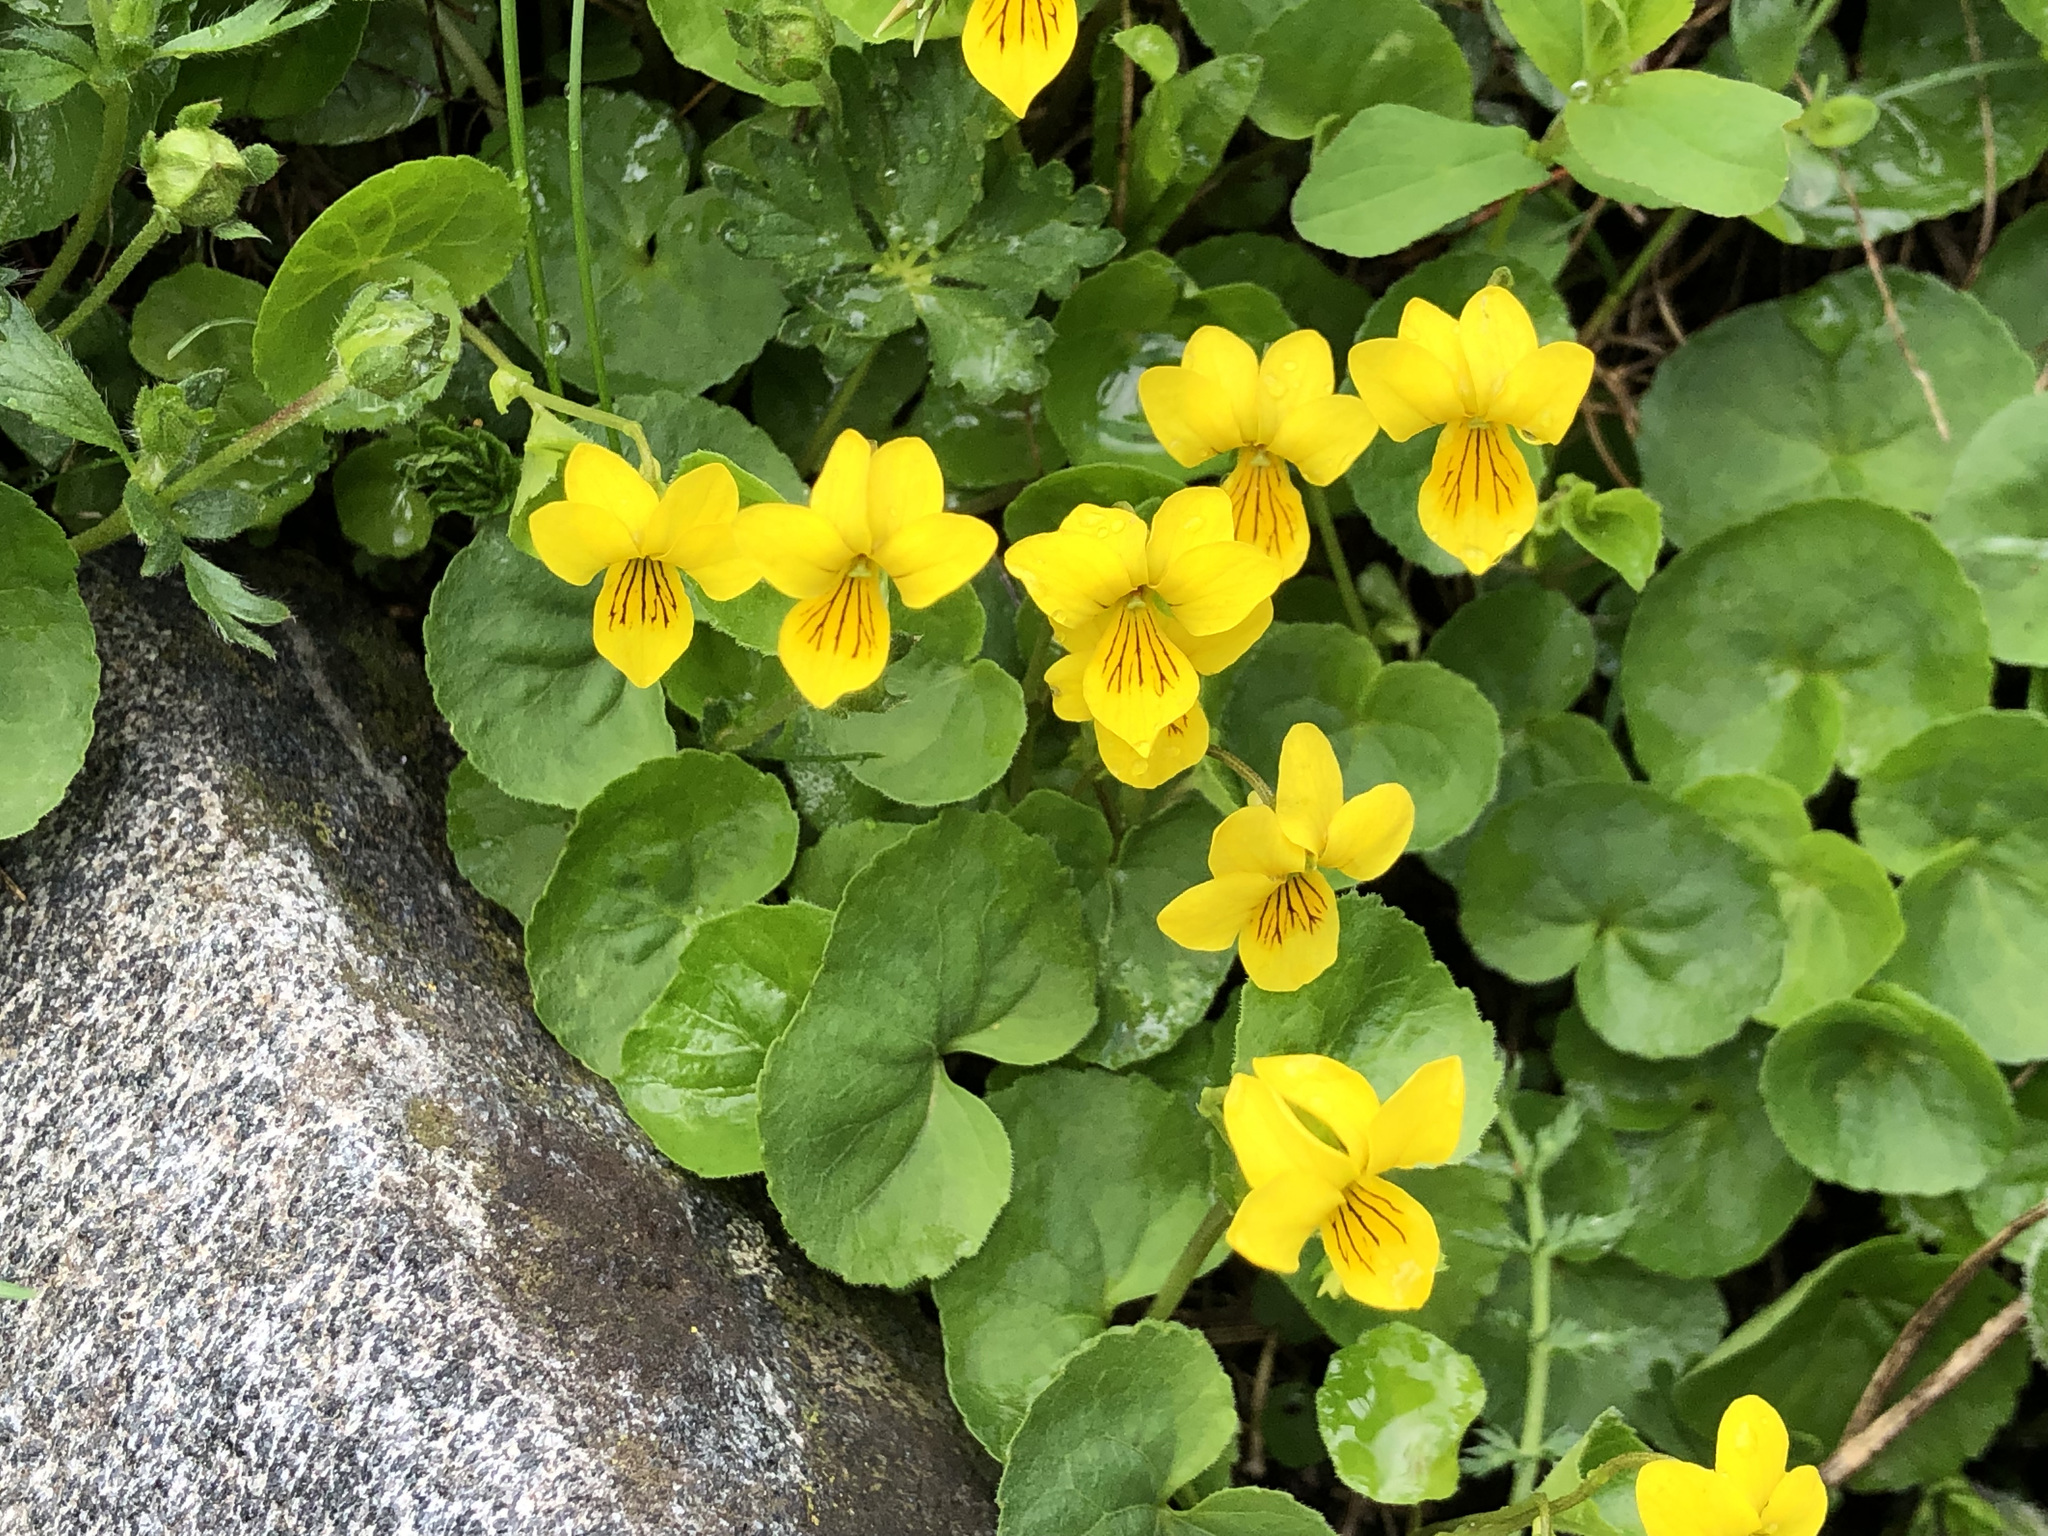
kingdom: Plantae
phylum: Tracheophyta
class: Magnoliopsida
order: Malpighiales
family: Violaceae
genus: Viola
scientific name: Viola biflora
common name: Alpine yellow violet
